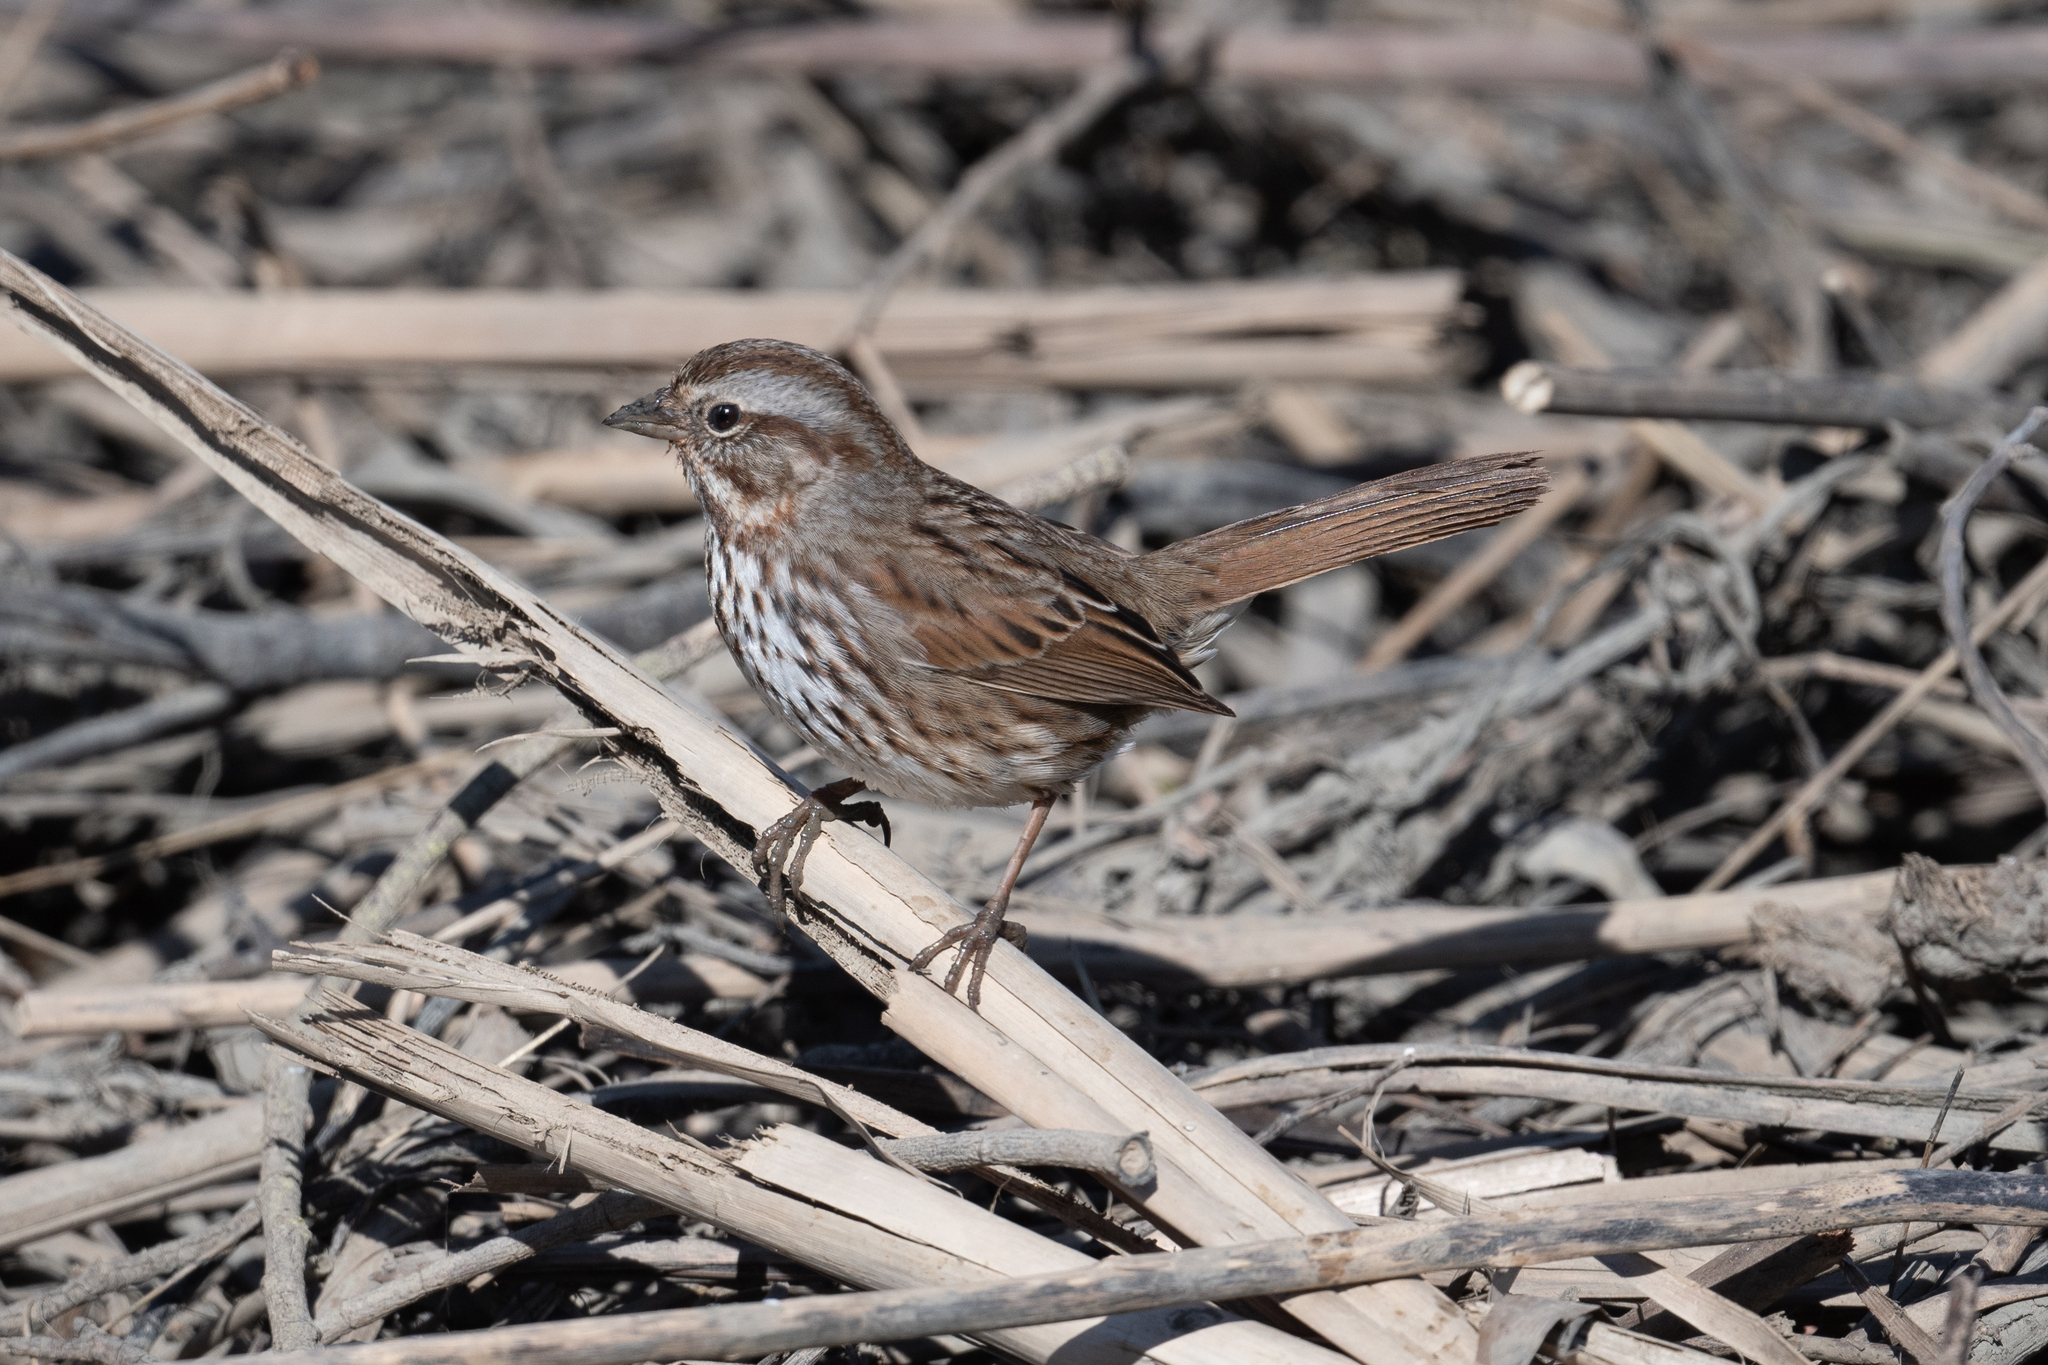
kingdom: Animalia
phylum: Chordata
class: Aves
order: Passeriformes
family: Passerellidae
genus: Melospiza
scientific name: Melospiza melodia
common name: Song sparrow
